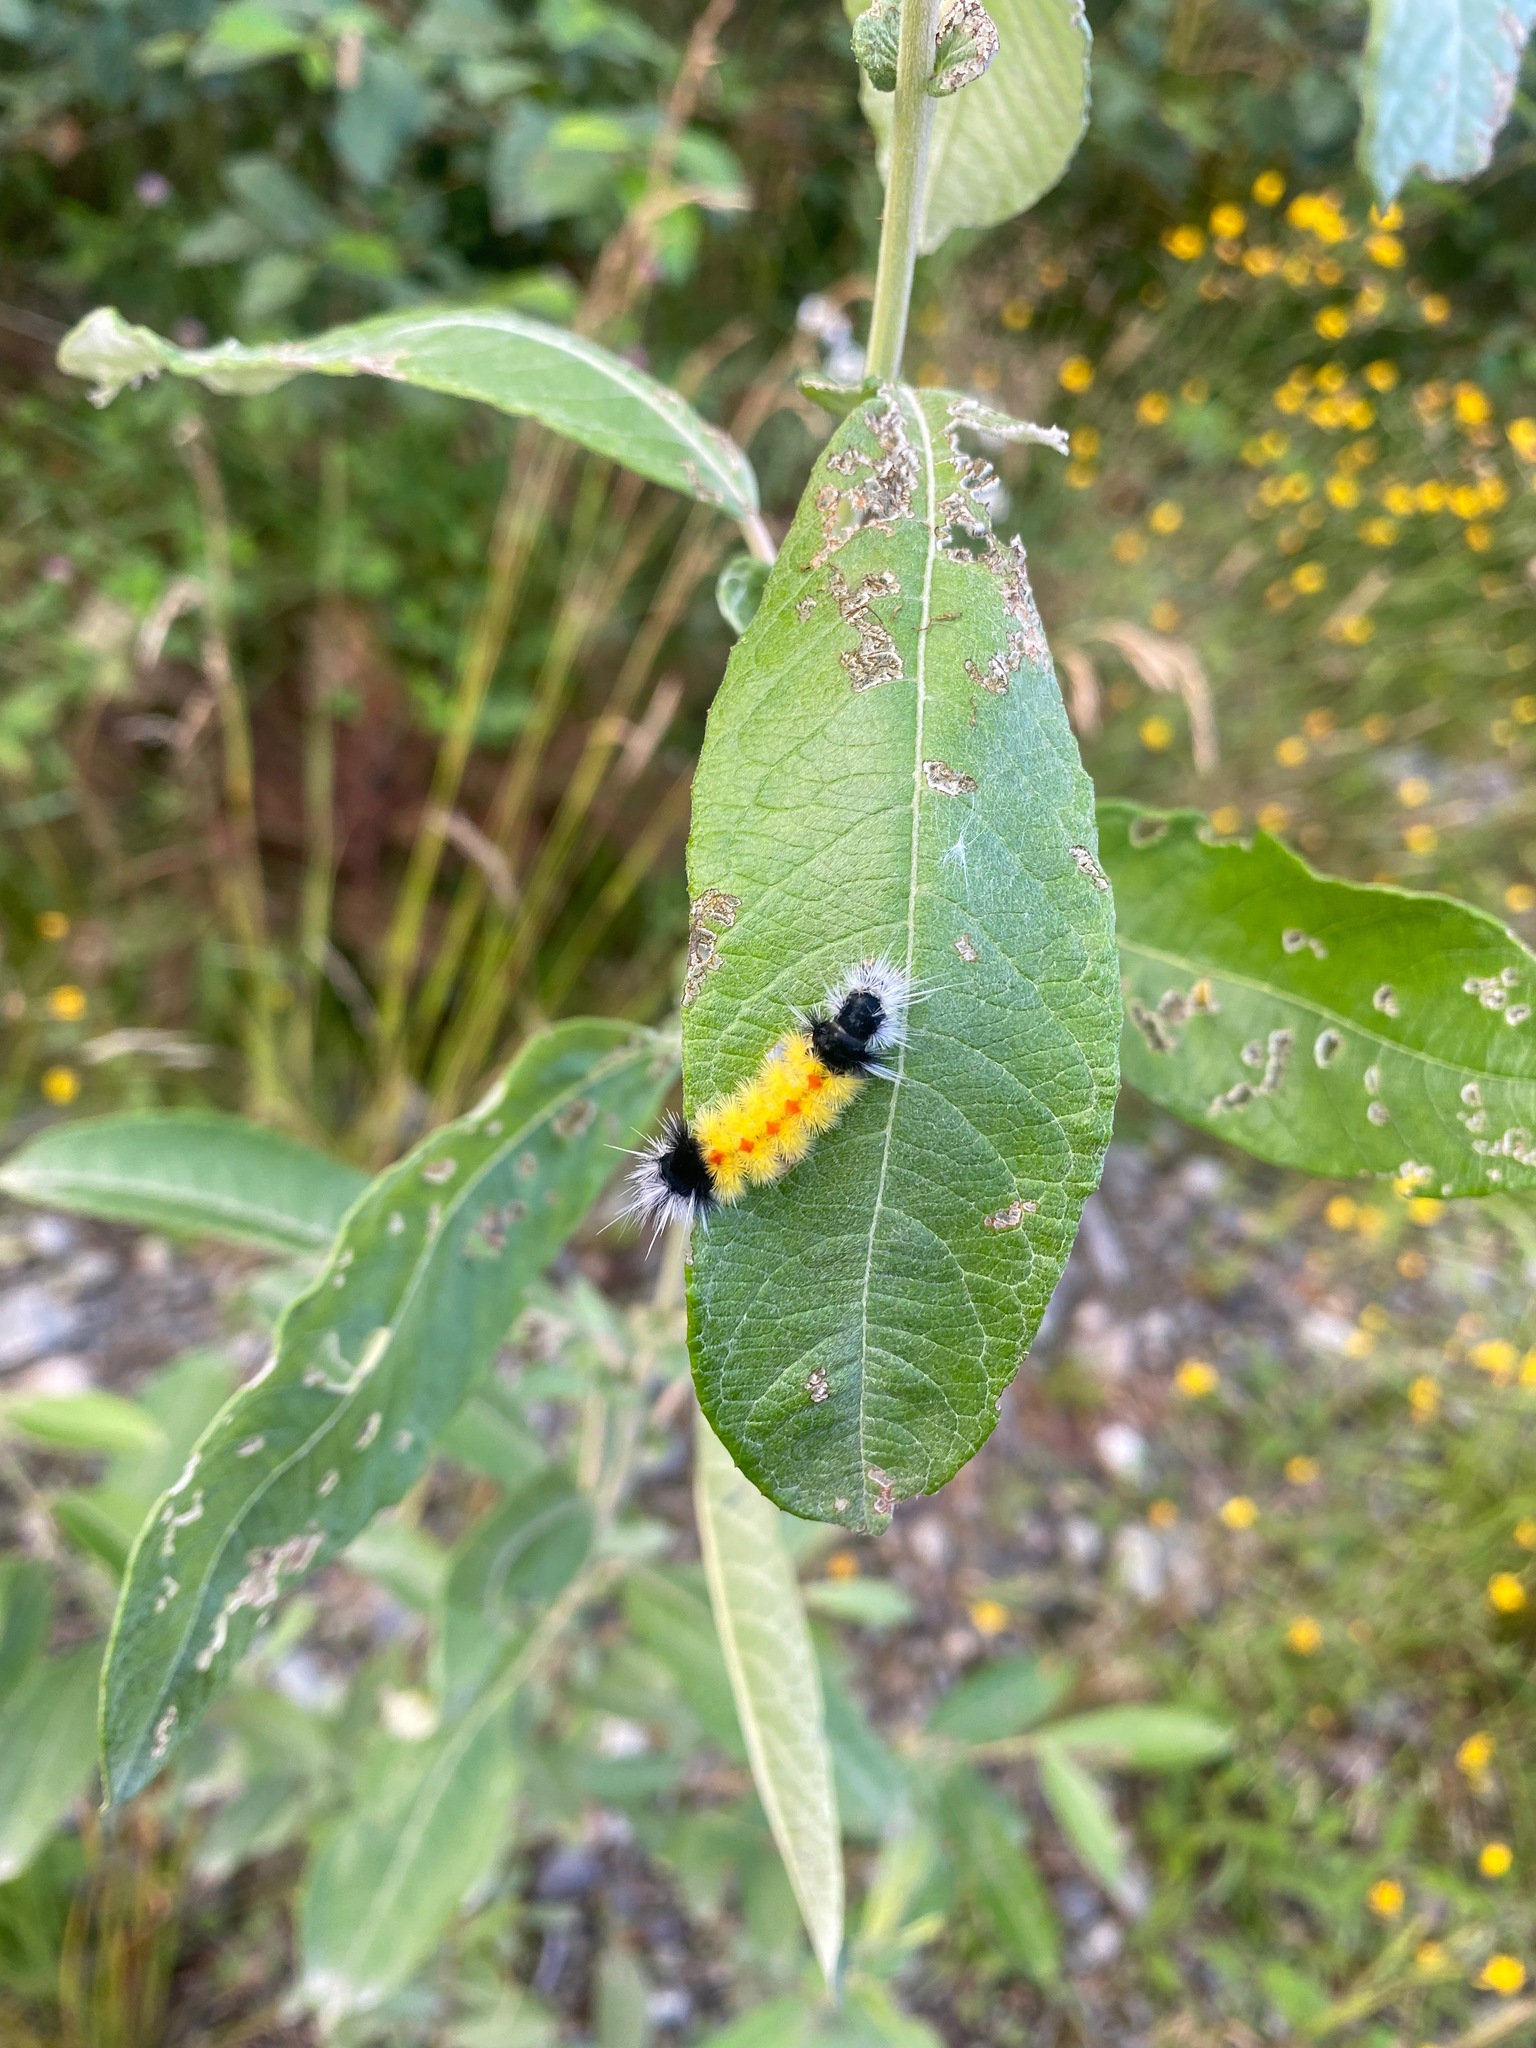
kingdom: Animalia
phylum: Arthropoda
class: Insecta
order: Lepidoptera
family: Erebidae
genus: Lophocampa
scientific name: Lophocampa maculata
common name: Spotted tussock moth
